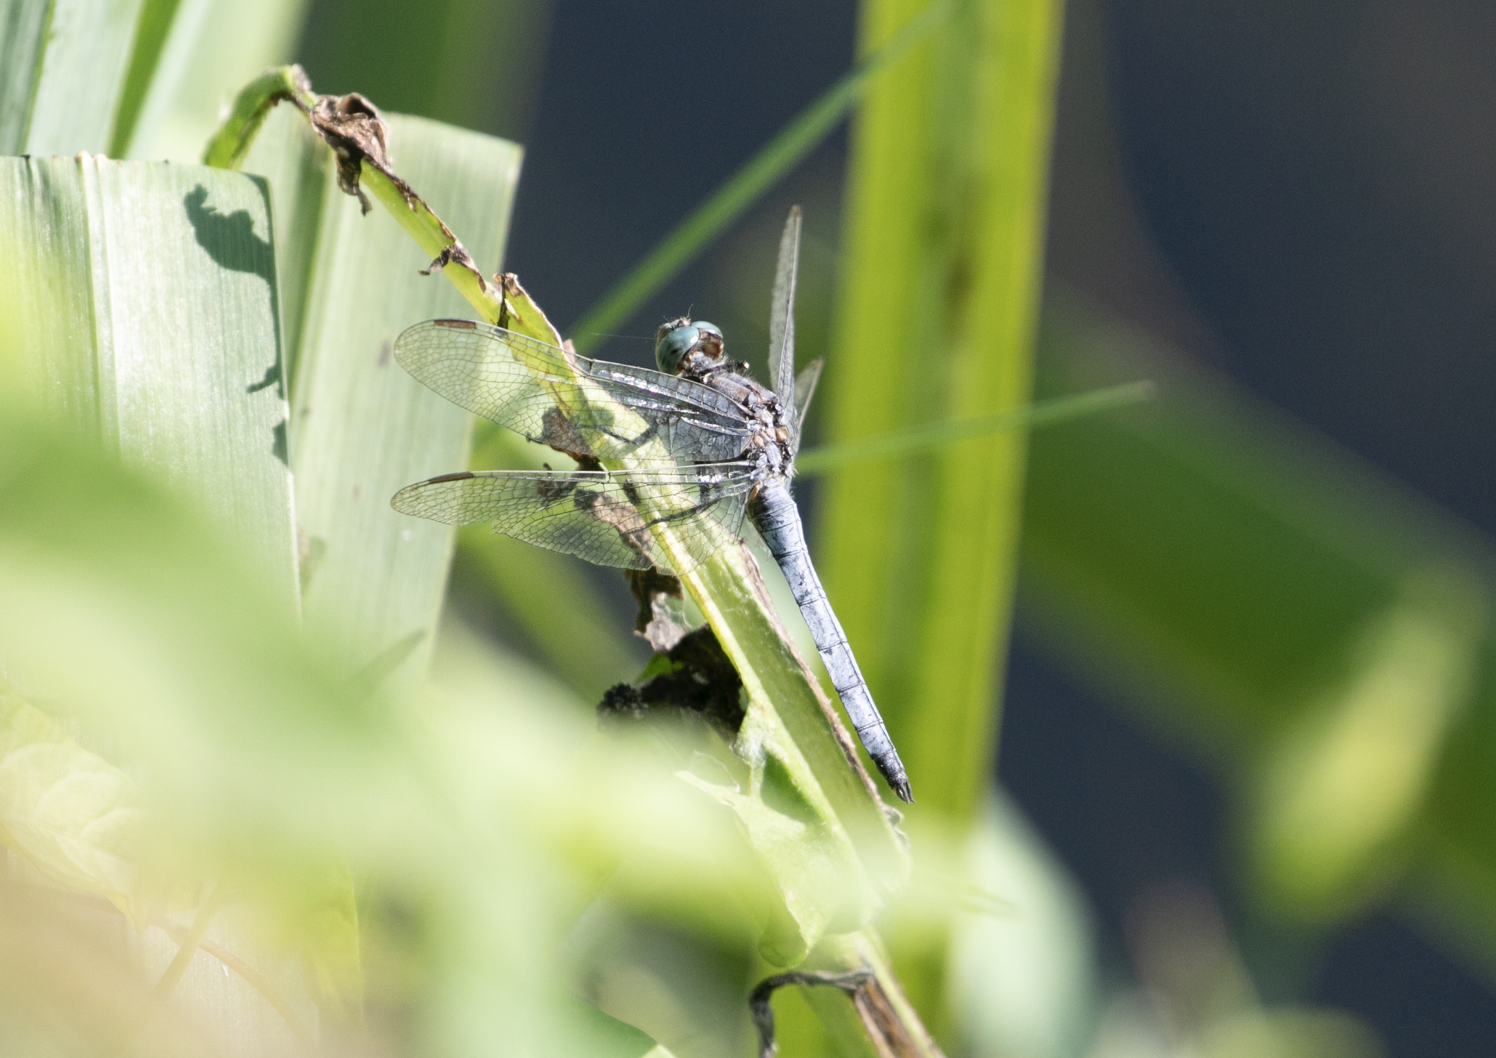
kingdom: Animalia
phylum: Arthropoda
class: Insecta
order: Odonata
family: Libellulidae
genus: Orthetrum
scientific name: Orthetrum coerulescens
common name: Keeled skimmer
